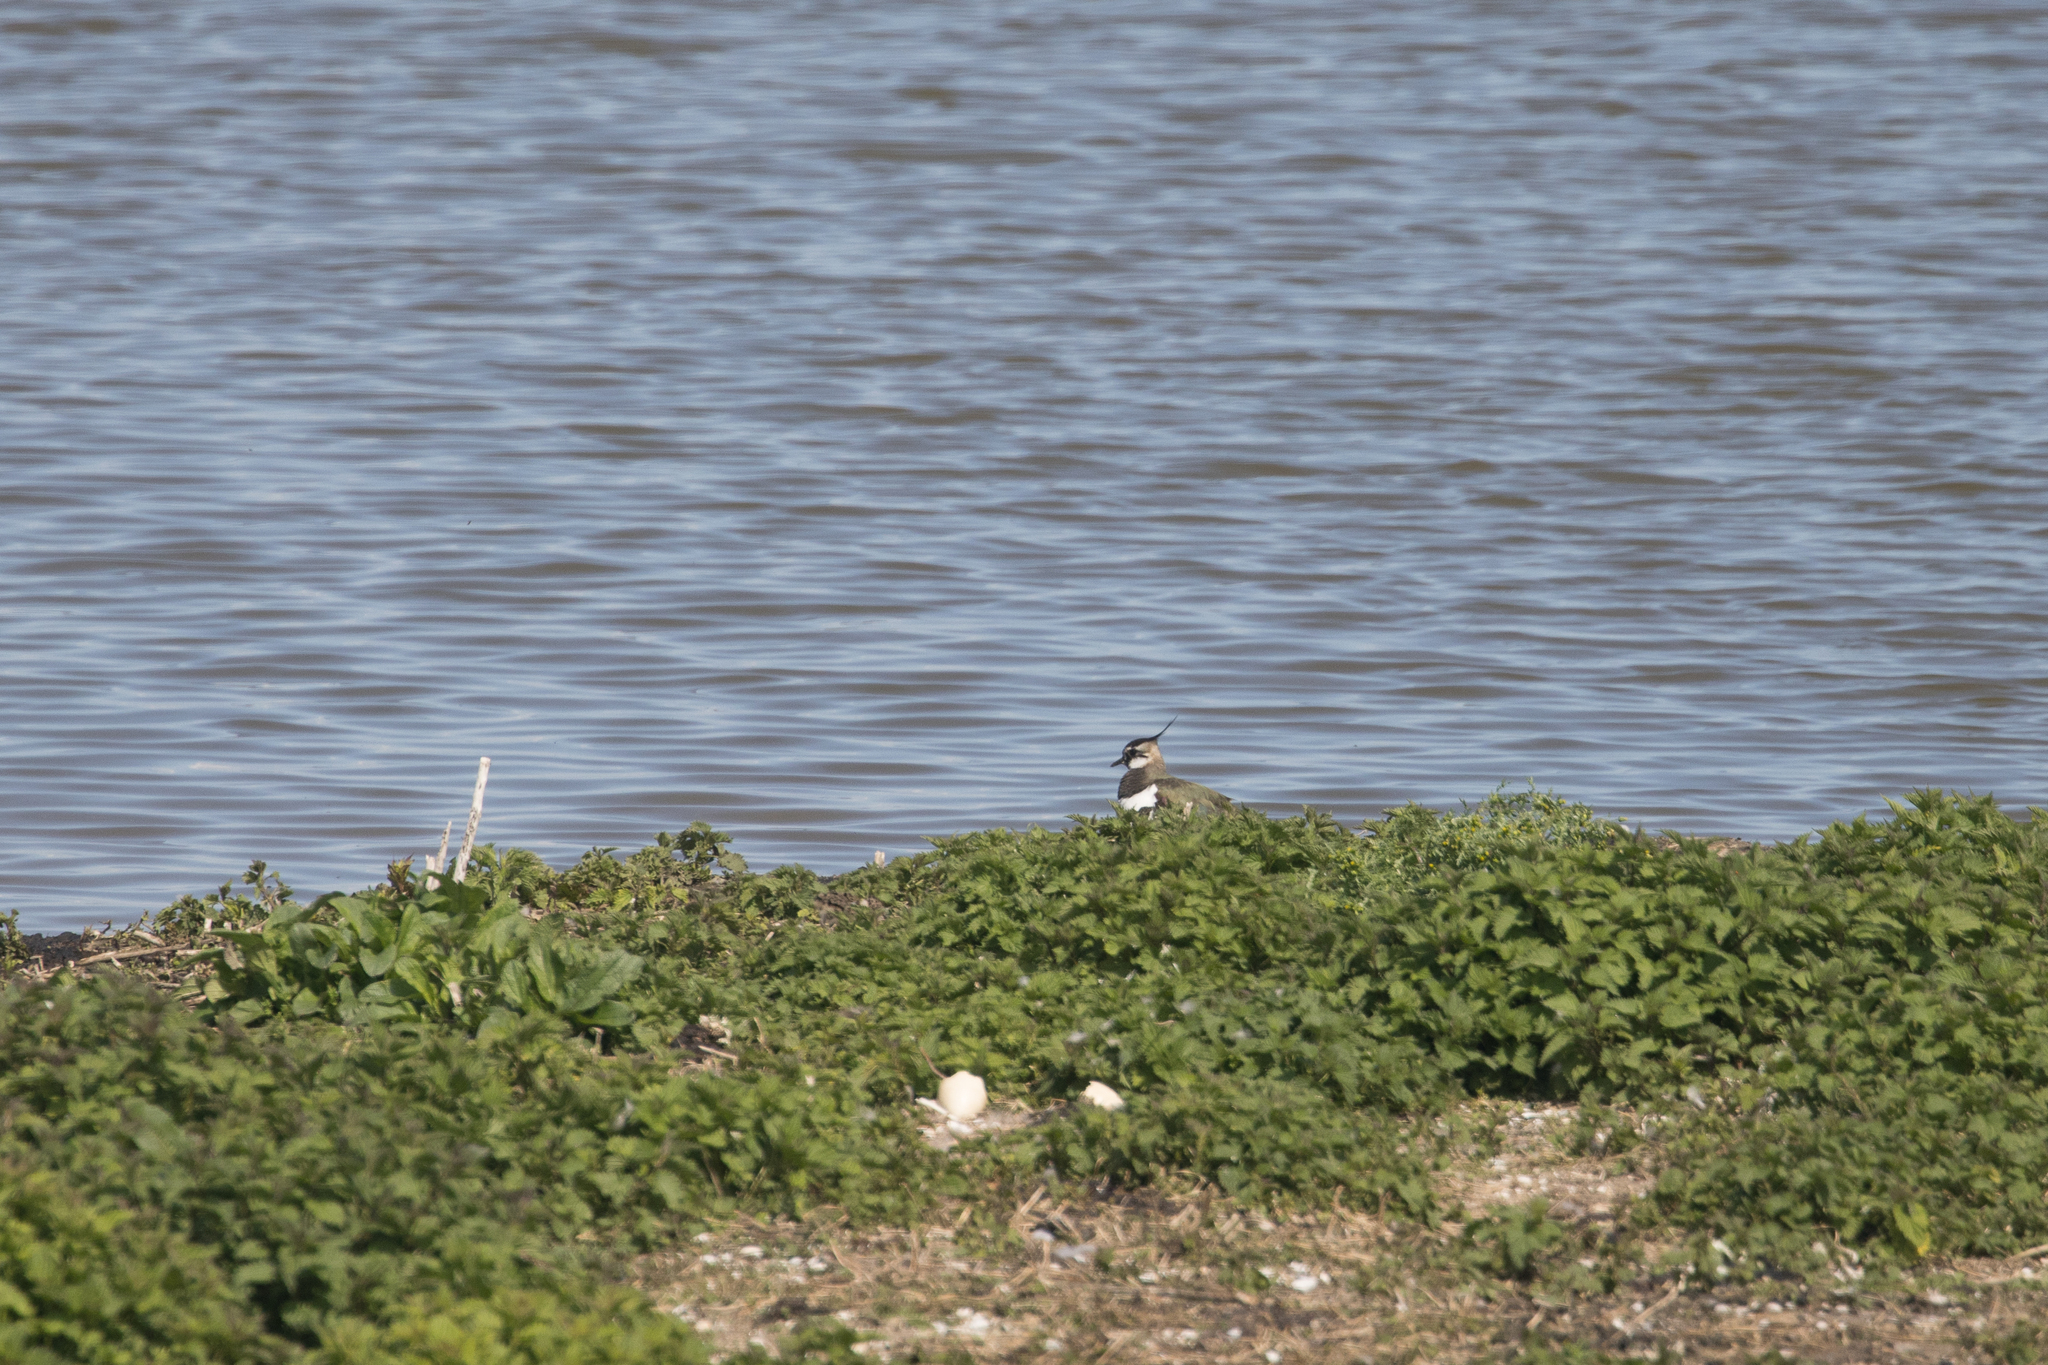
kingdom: Animalia
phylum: Chordata
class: Aves
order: Charadriiformes
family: Charadriidae
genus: Vanellus
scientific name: Vanellus vanellus
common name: Northern lapwing
